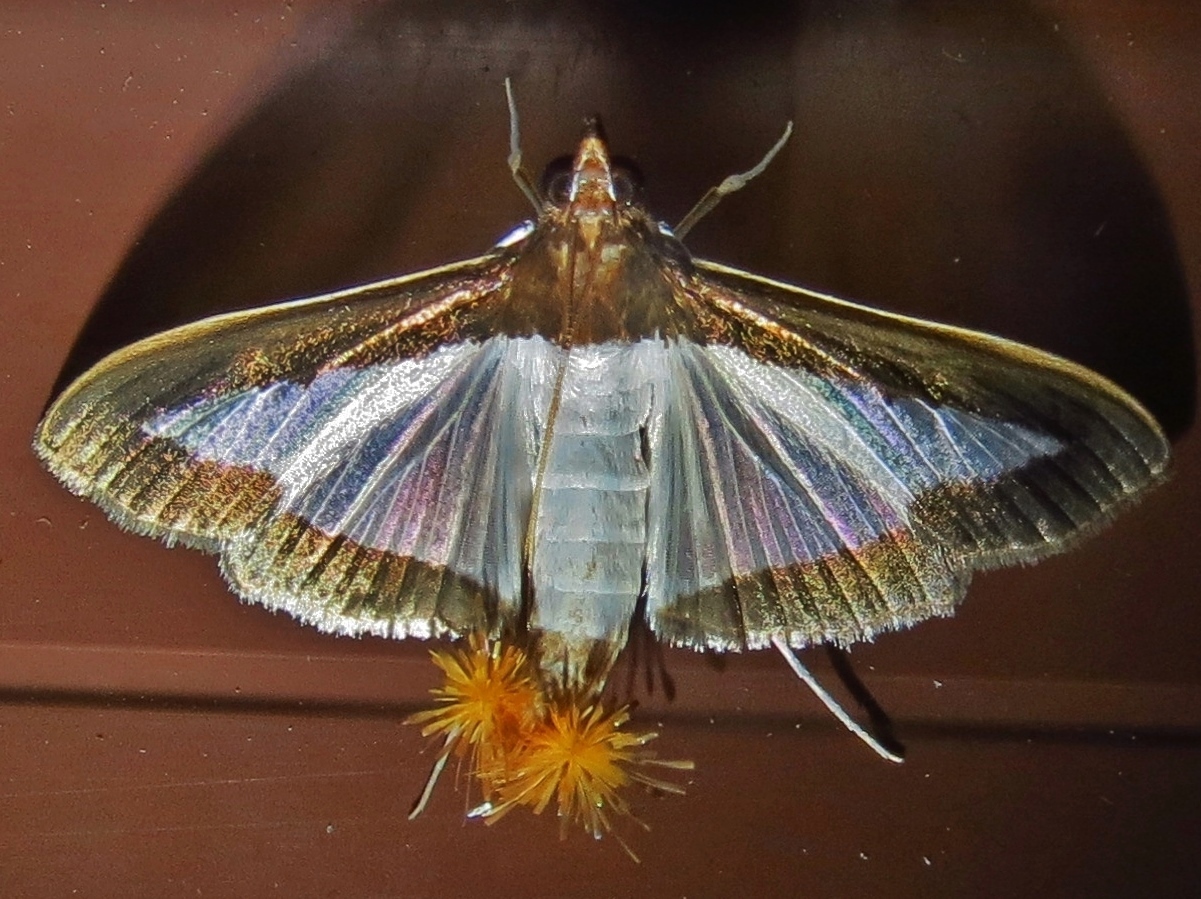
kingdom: Animalia
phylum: Arthropoda
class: Insecta
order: Lepidoptera
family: Crambidae
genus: Diaphania
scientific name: Diaphania indica
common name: Cucumber moth
